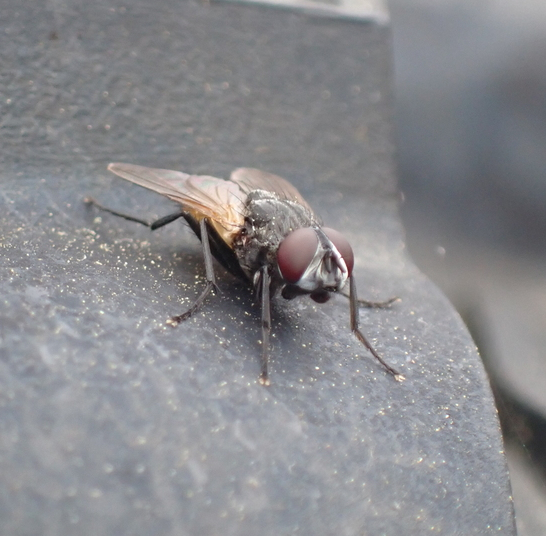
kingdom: Animalia
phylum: Arthropoda
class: Insecta
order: Diptera
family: Muscidae
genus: Musca
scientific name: Musca domestica
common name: House fly
